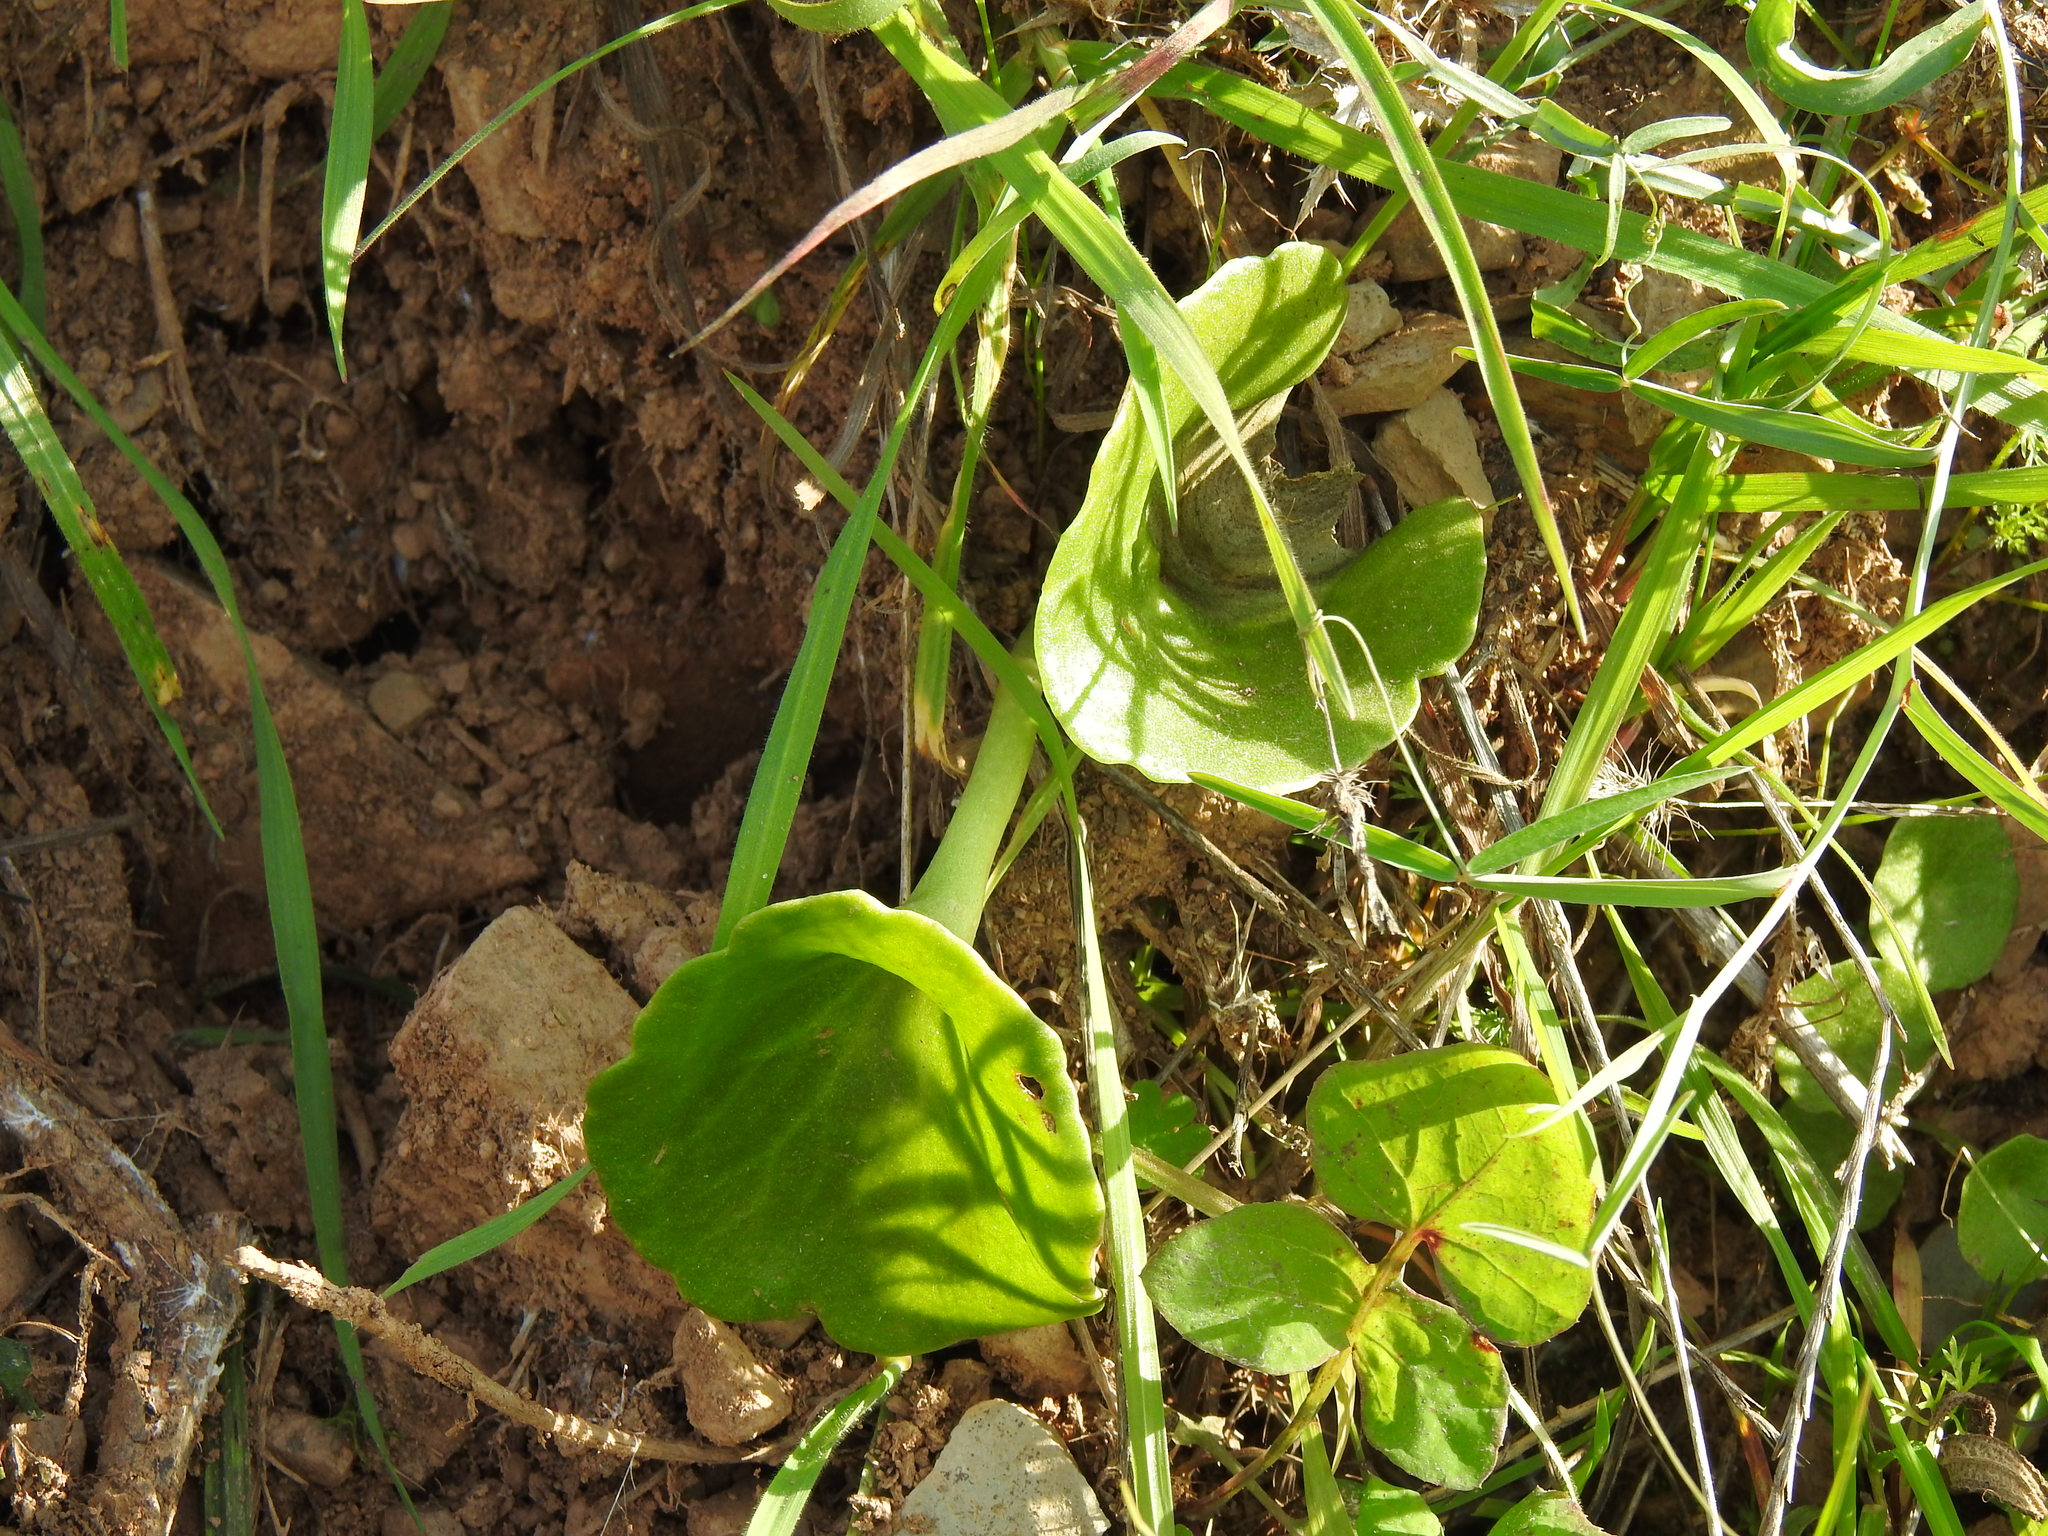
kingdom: Plantae
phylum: Tracheophyta
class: Magnoliopsida
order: Saxifragales
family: Crassulaceae
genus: Umbilicus
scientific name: Umbilicus rupestris
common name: Navelwort
